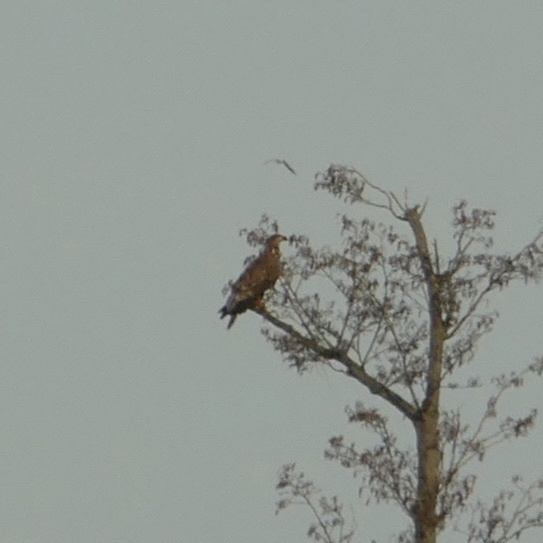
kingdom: Animalia
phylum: Chordata
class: Aves
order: Accipitriformes
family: Accipitridae
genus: Haliaeetus
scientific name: Haliaeetus albicilla
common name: White-tailed eagle
